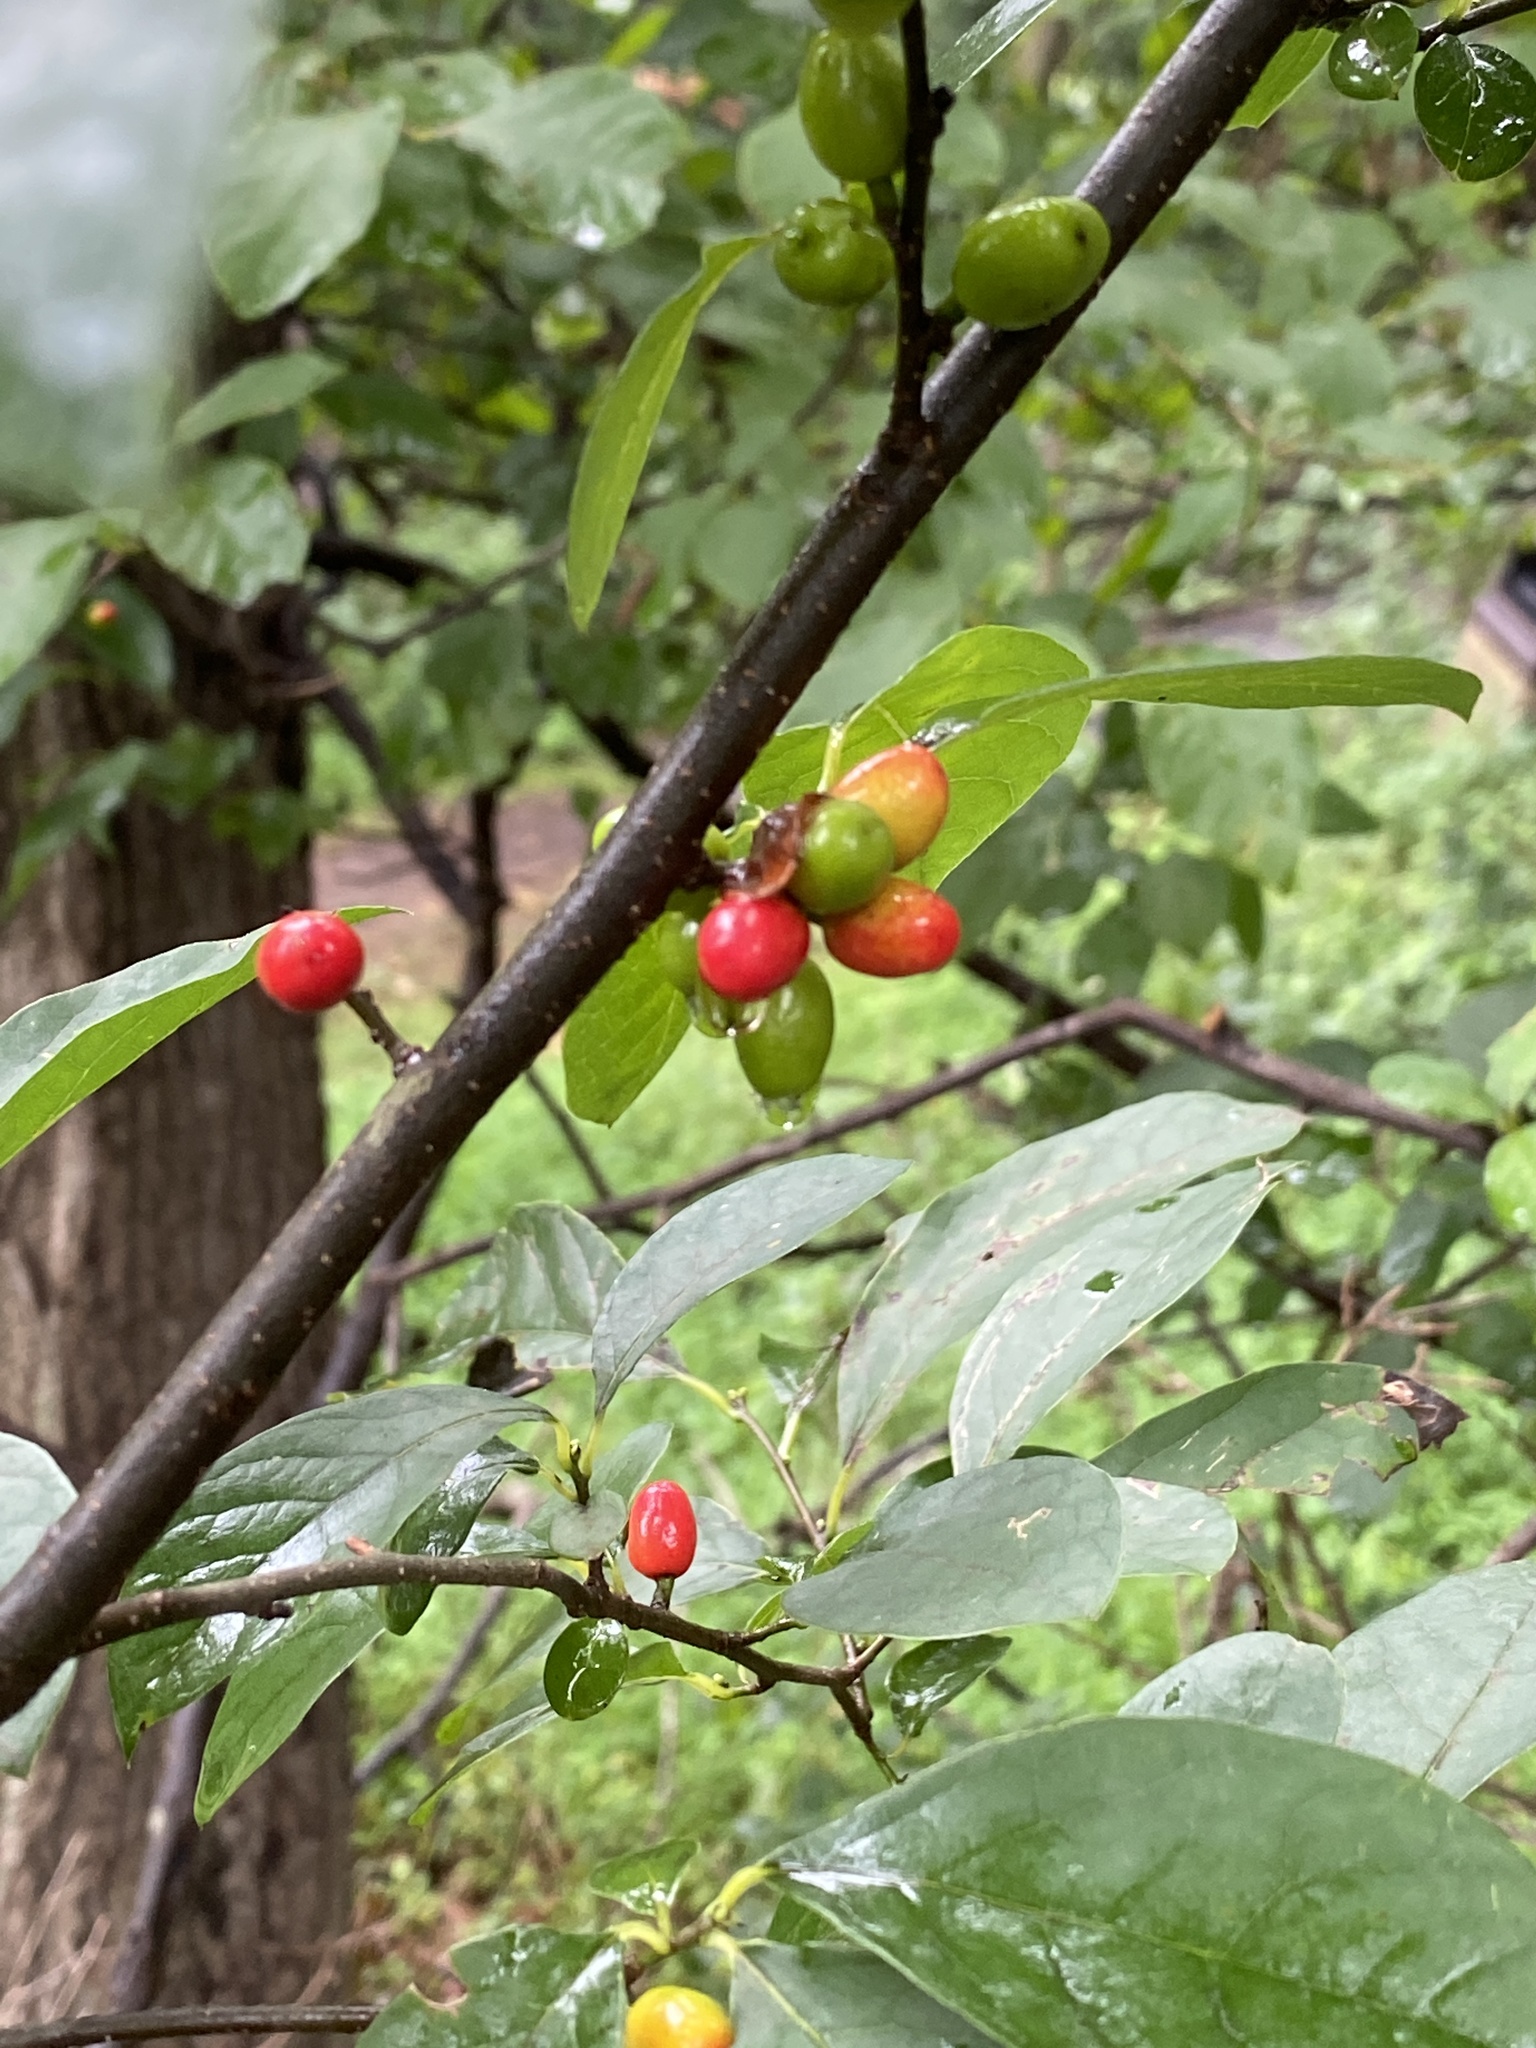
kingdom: Plantae
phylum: Tracheophyta
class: Magnoliopsida
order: Laurales
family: Lauraceae
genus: Lindera
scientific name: Lindera benzoin
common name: Spicebush
